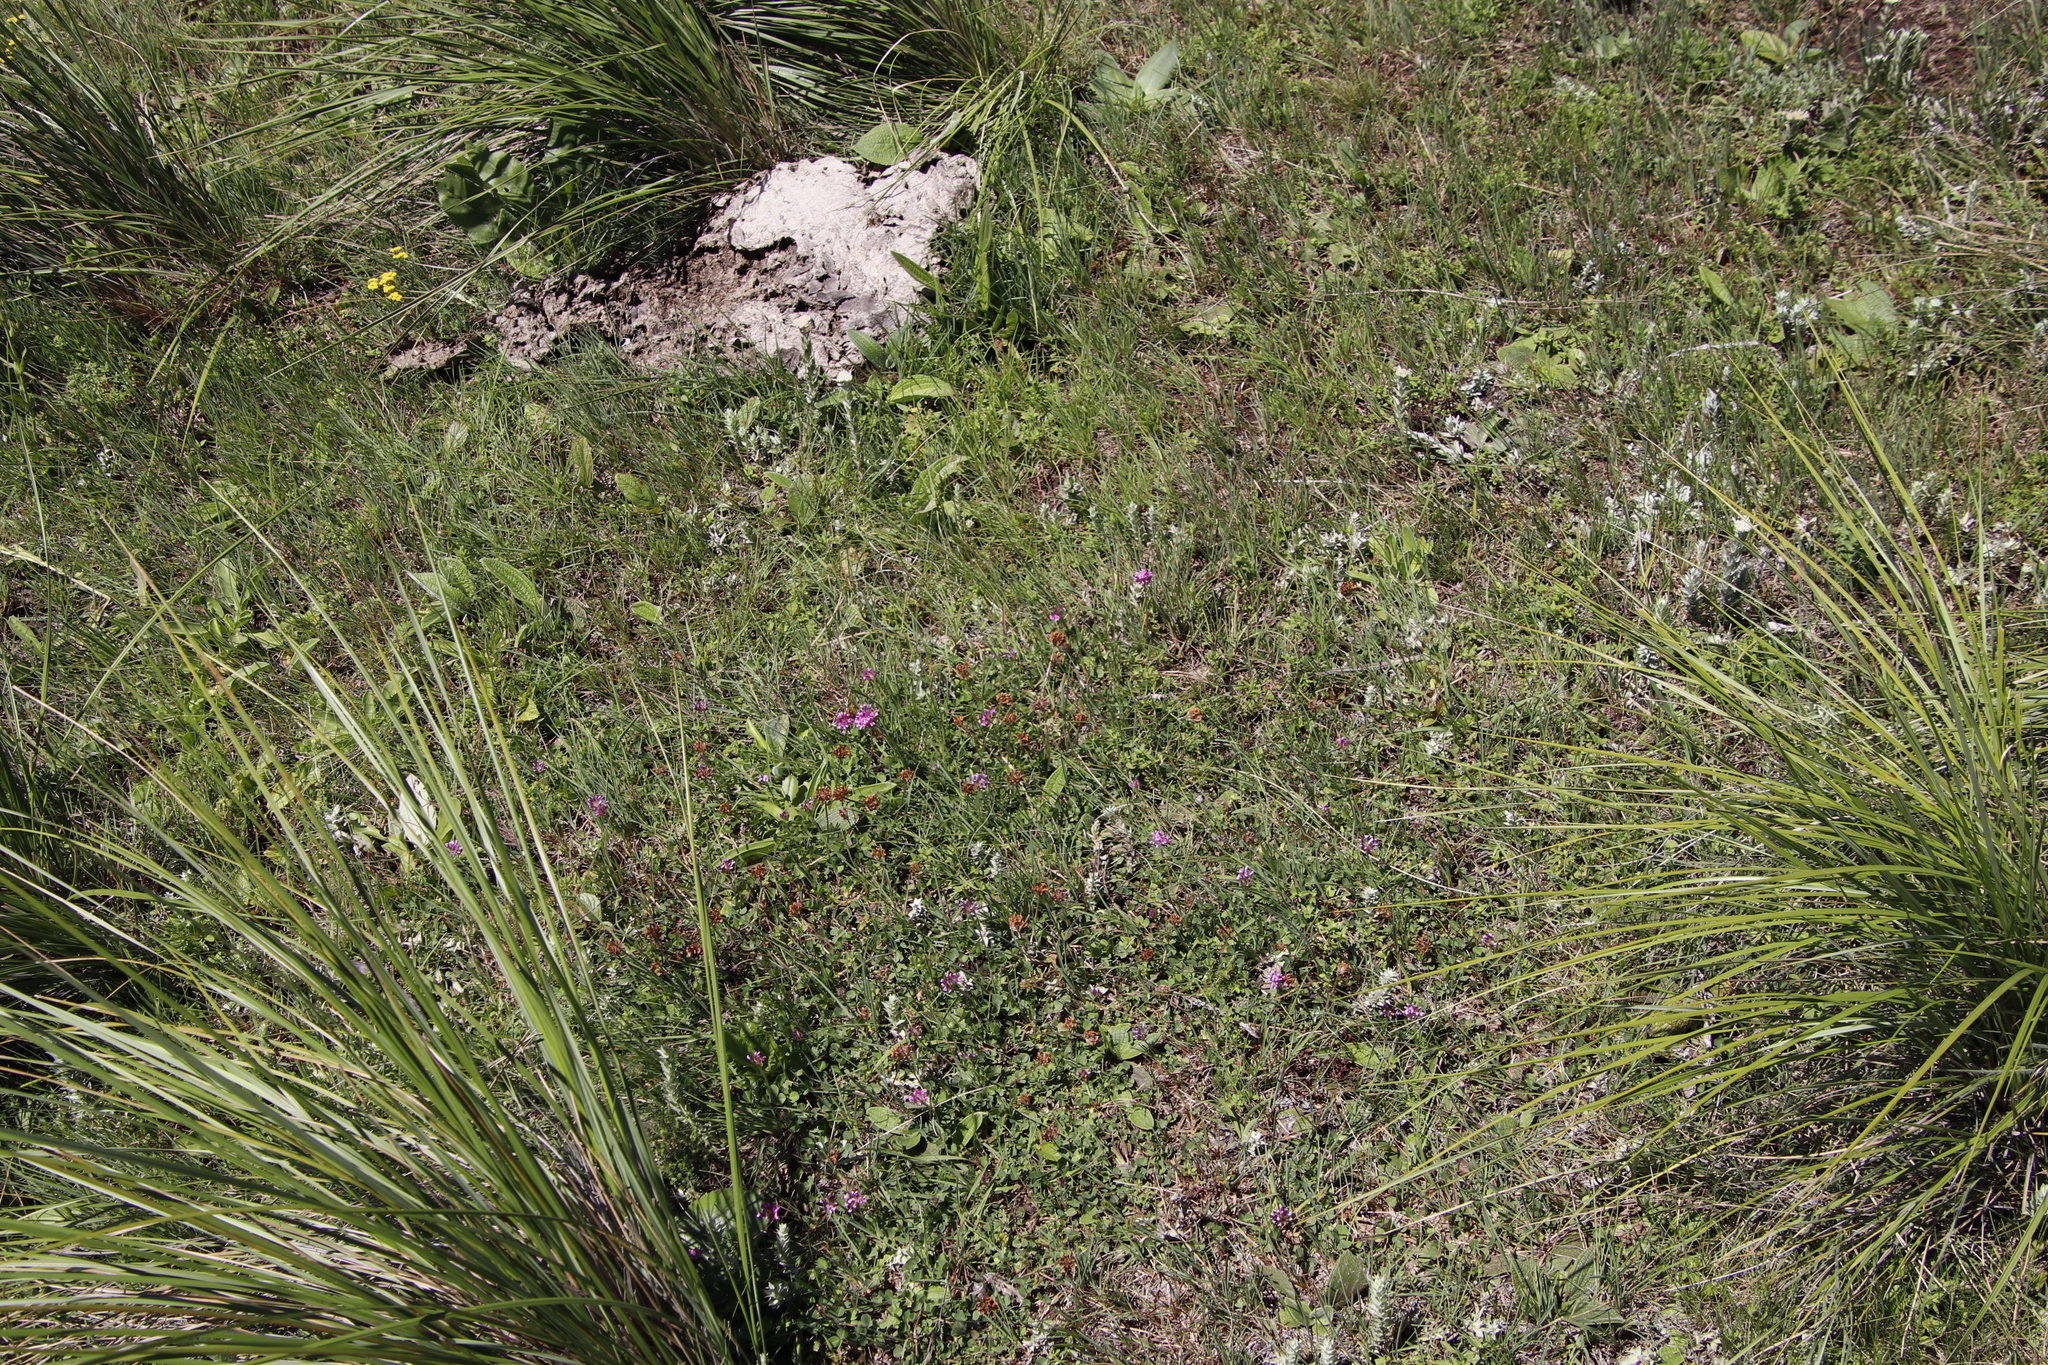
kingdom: Plantae
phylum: Tracheophyta
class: Magnoliopsida
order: Fabales
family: Fabaceae
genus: Trifolium
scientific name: Trifolium burchellianum
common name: Burchell's clover
